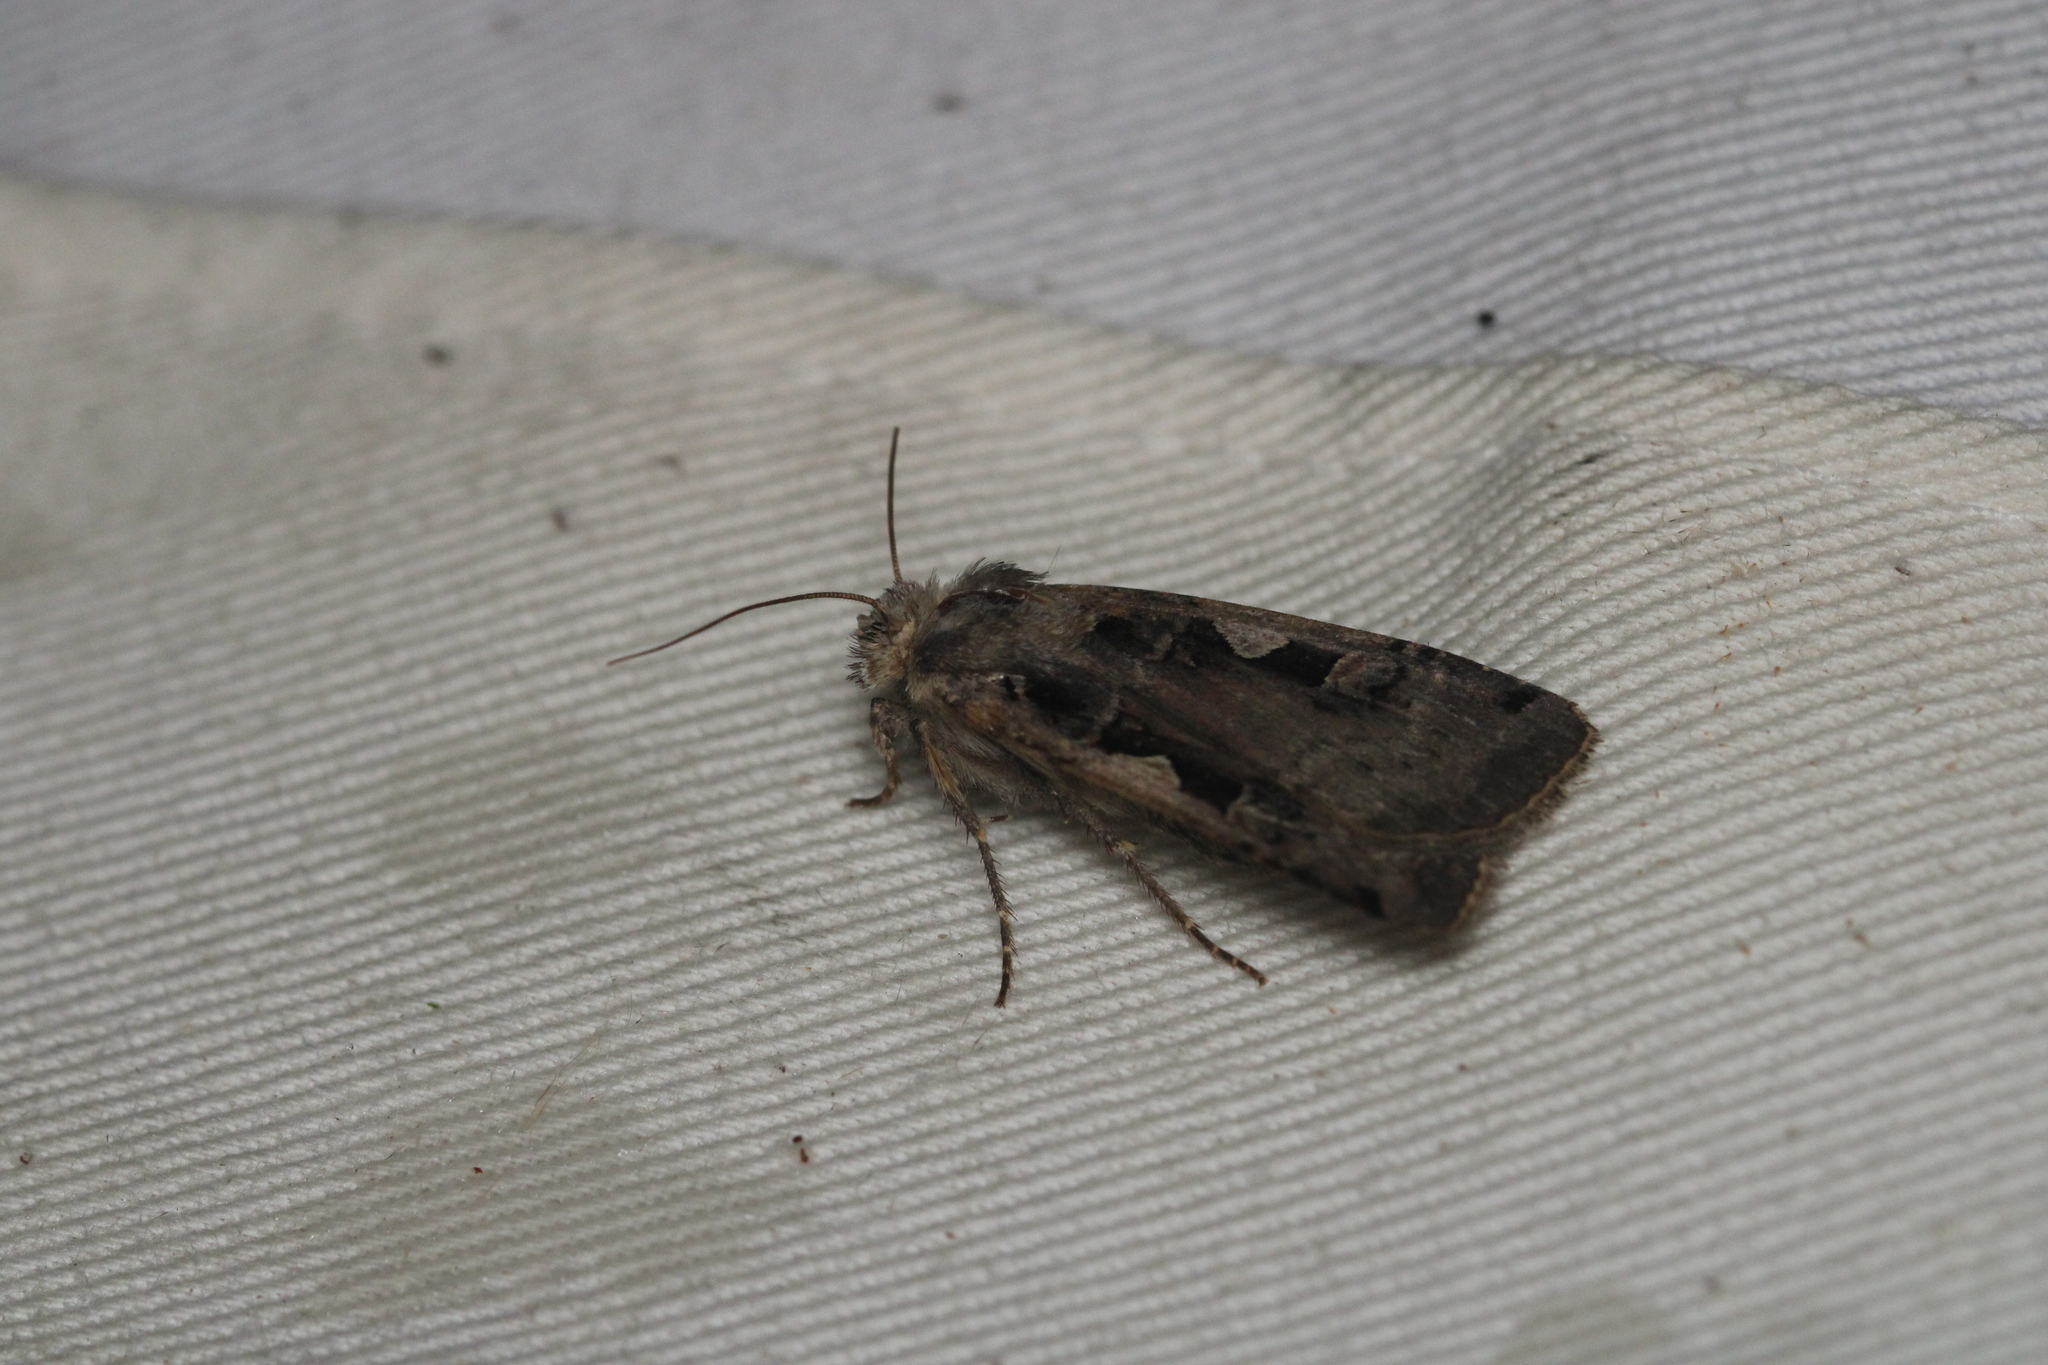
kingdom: Animalia
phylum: Arthropoda
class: Insecta
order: Lepidoptera
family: Noctuidae
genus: Xestia
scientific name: Xestia c-nigrum
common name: Setaceous hebrew character
